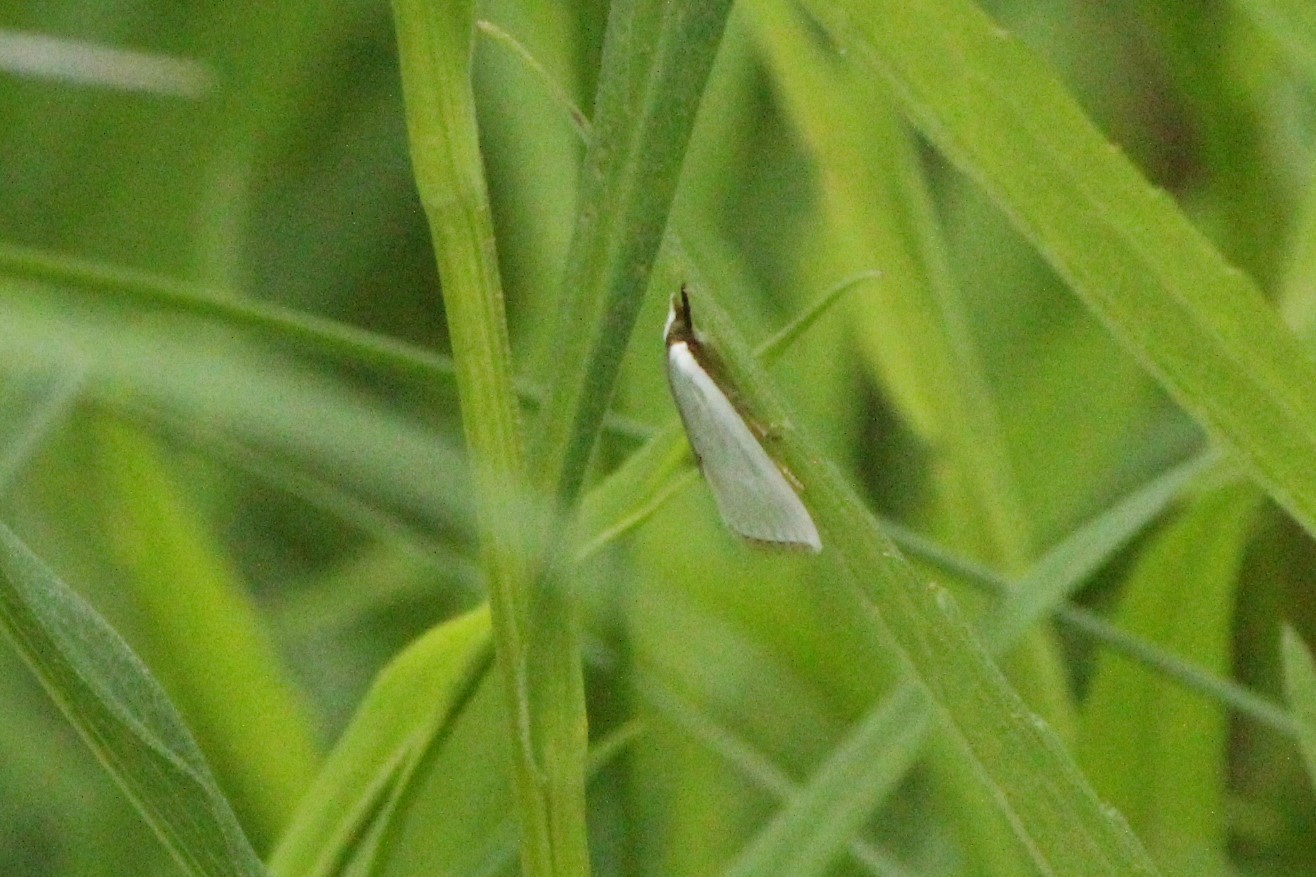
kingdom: Animalia
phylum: Arthropoda
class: Insecta
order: Lepidoptera
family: Crambidae
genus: Argyria
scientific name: Argyria nivalis
